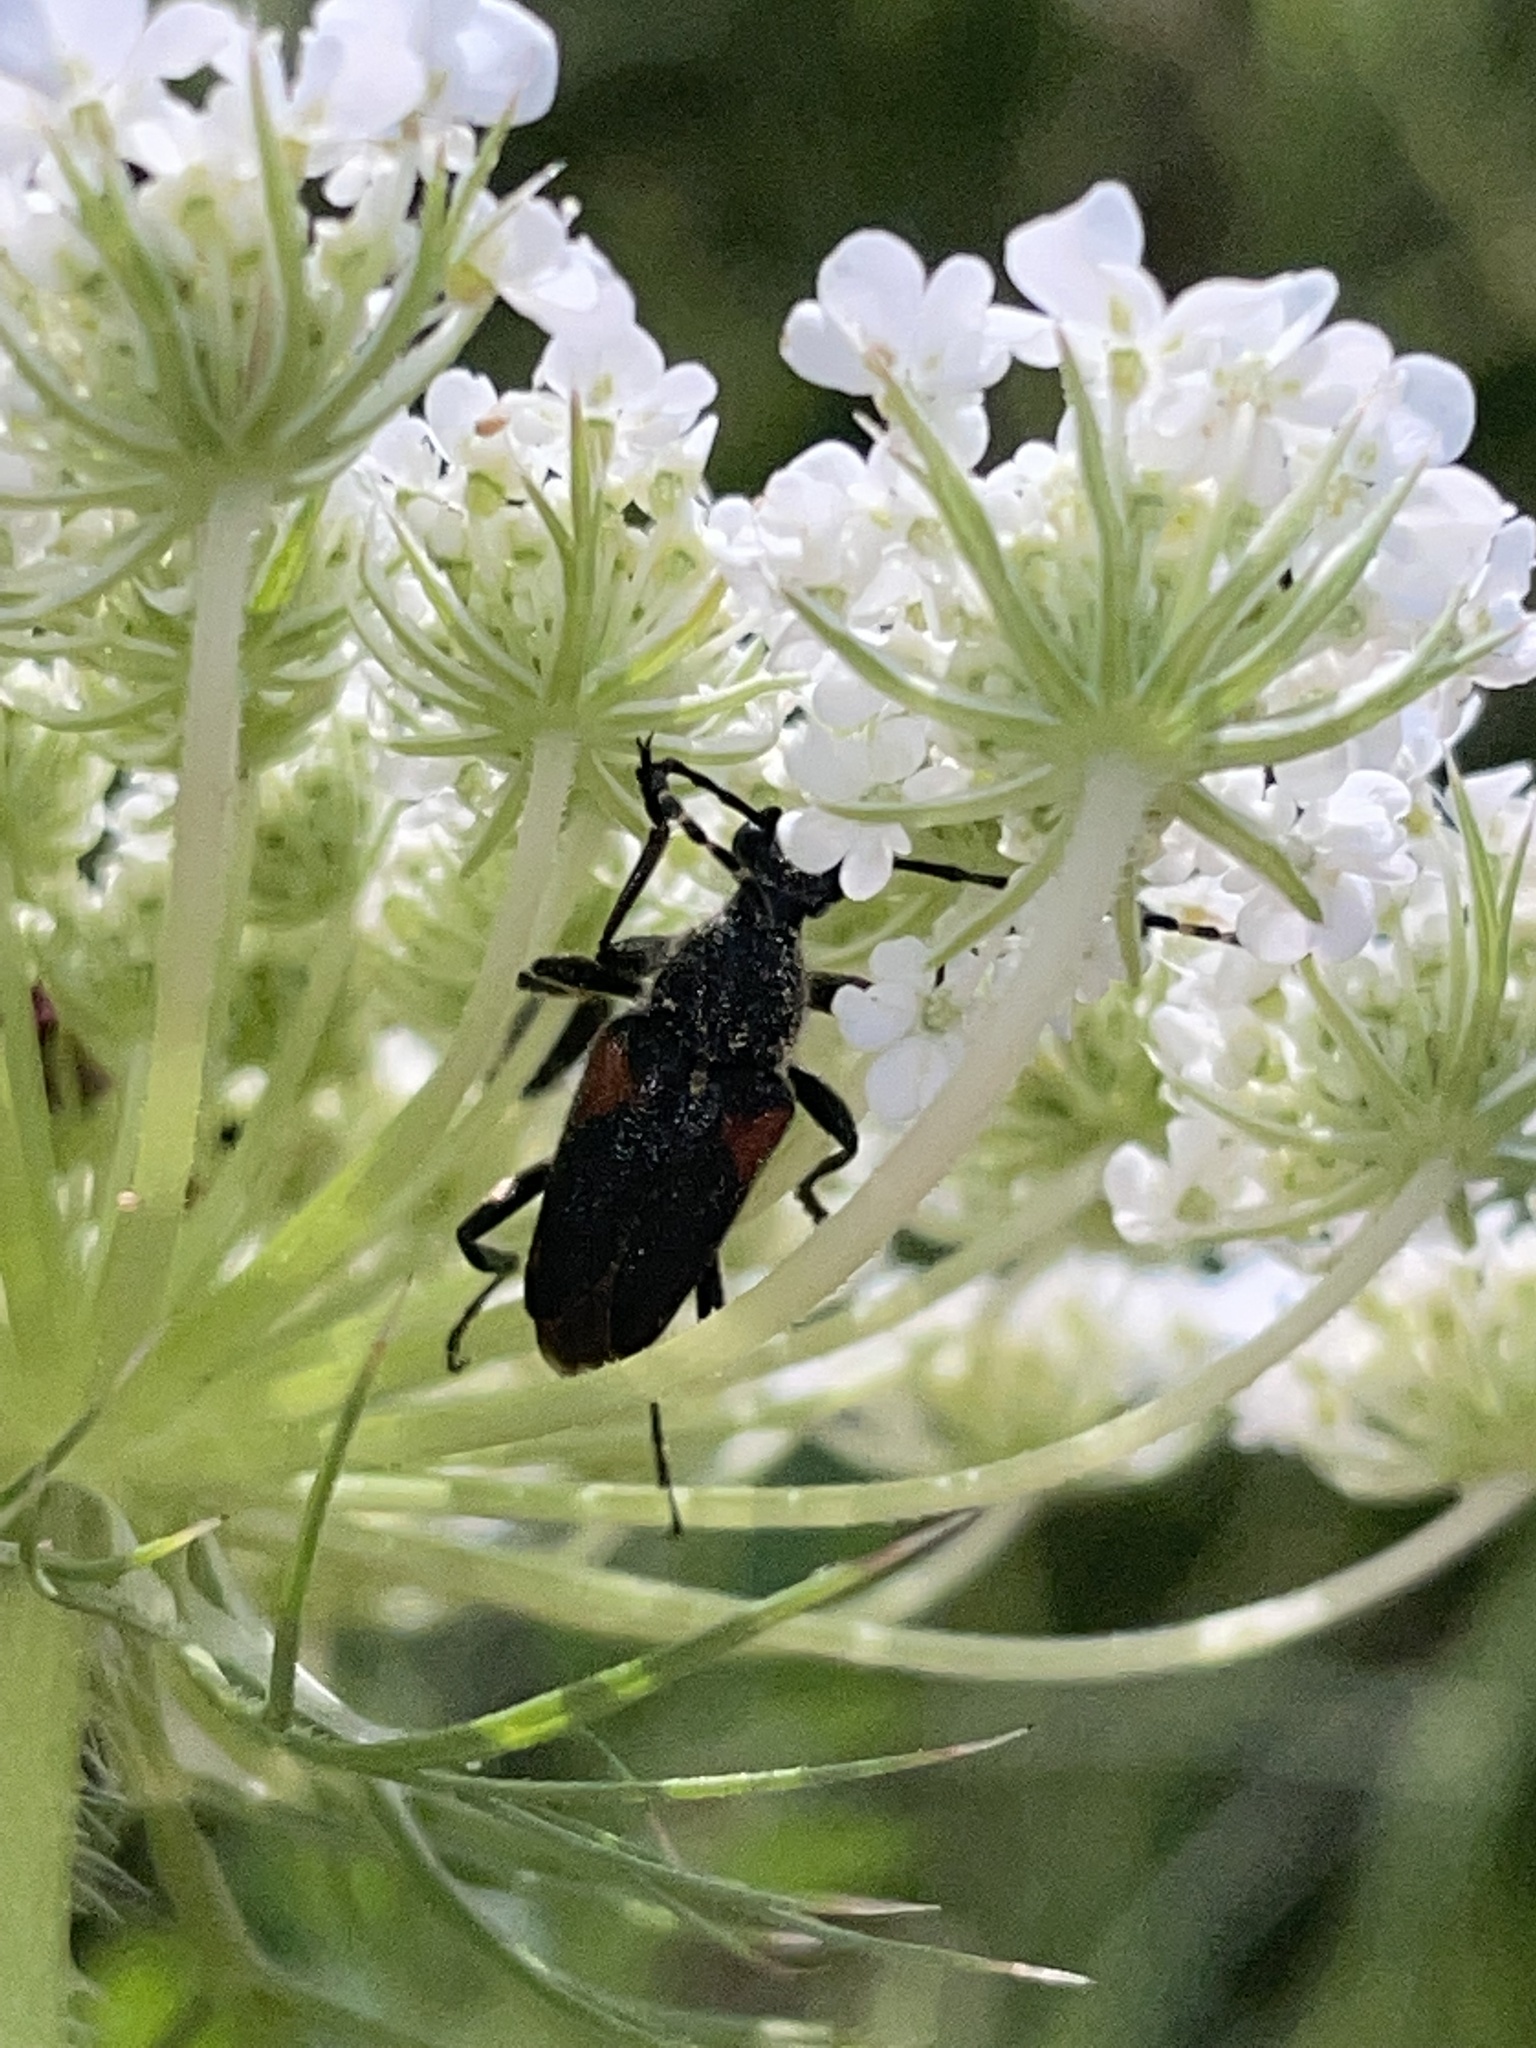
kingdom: Animalia
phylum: Arthropoda
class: Insecta
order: Coleoptera
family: Cerambycidae
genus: Brachyleptura
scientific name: Brachyleptura vagans
